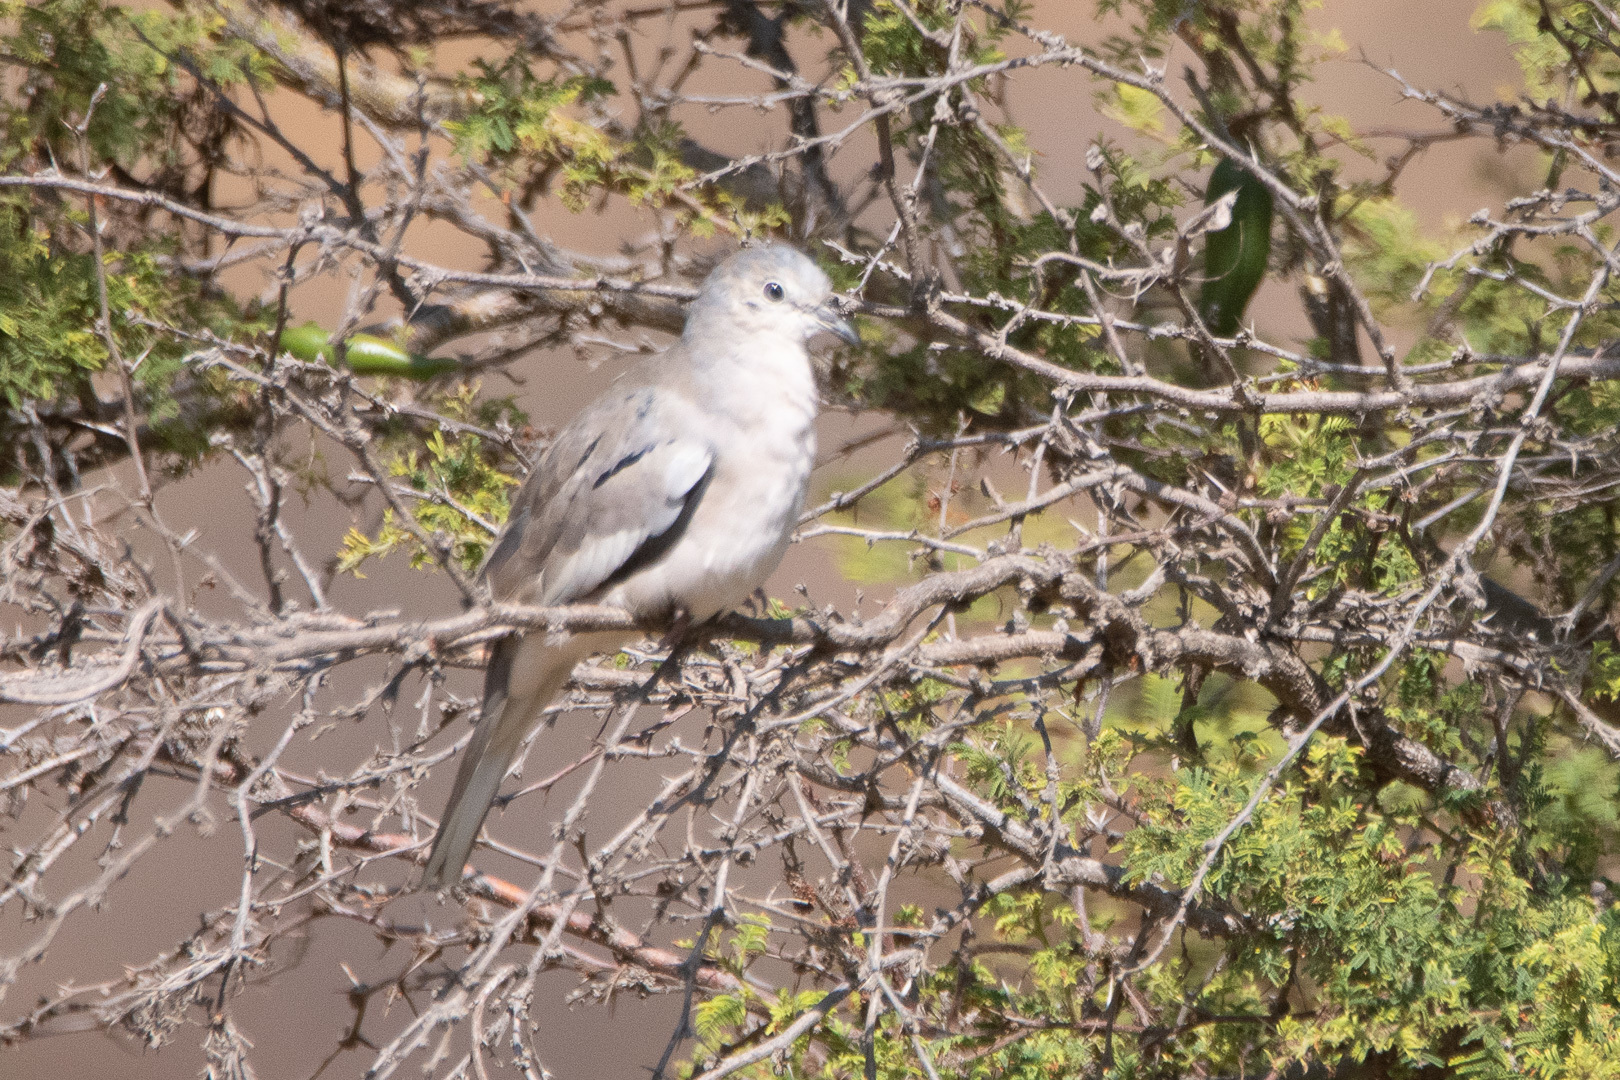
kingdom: Animalia
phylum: Chordata
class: Aves
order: Columbiformes
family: Columbidae
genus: Columbina
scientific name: Columbina picui
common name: Picui ground dove
